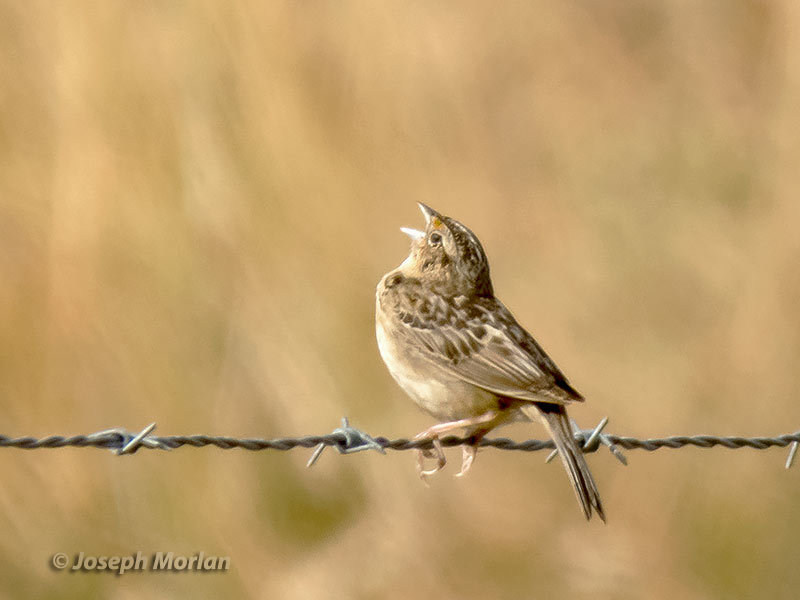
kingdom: Animalia
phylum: Chordata
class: Aves
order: Passeriformes
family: Passerellidae
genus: Ammodramus
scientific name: Ammodramus savannarum
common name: Grasshopper sparrow
